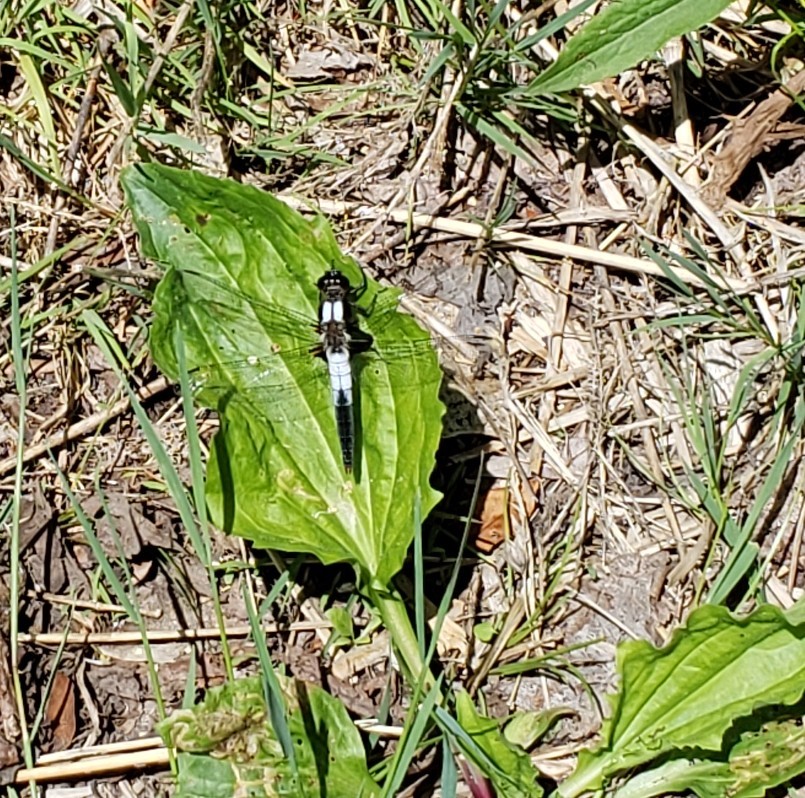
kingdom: Animalia
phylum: Arthropoda
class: Insecta
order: Odonata
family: Libellulidae
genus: Ladona
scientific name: Ladona julia
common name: Chalk-fronted corporal
